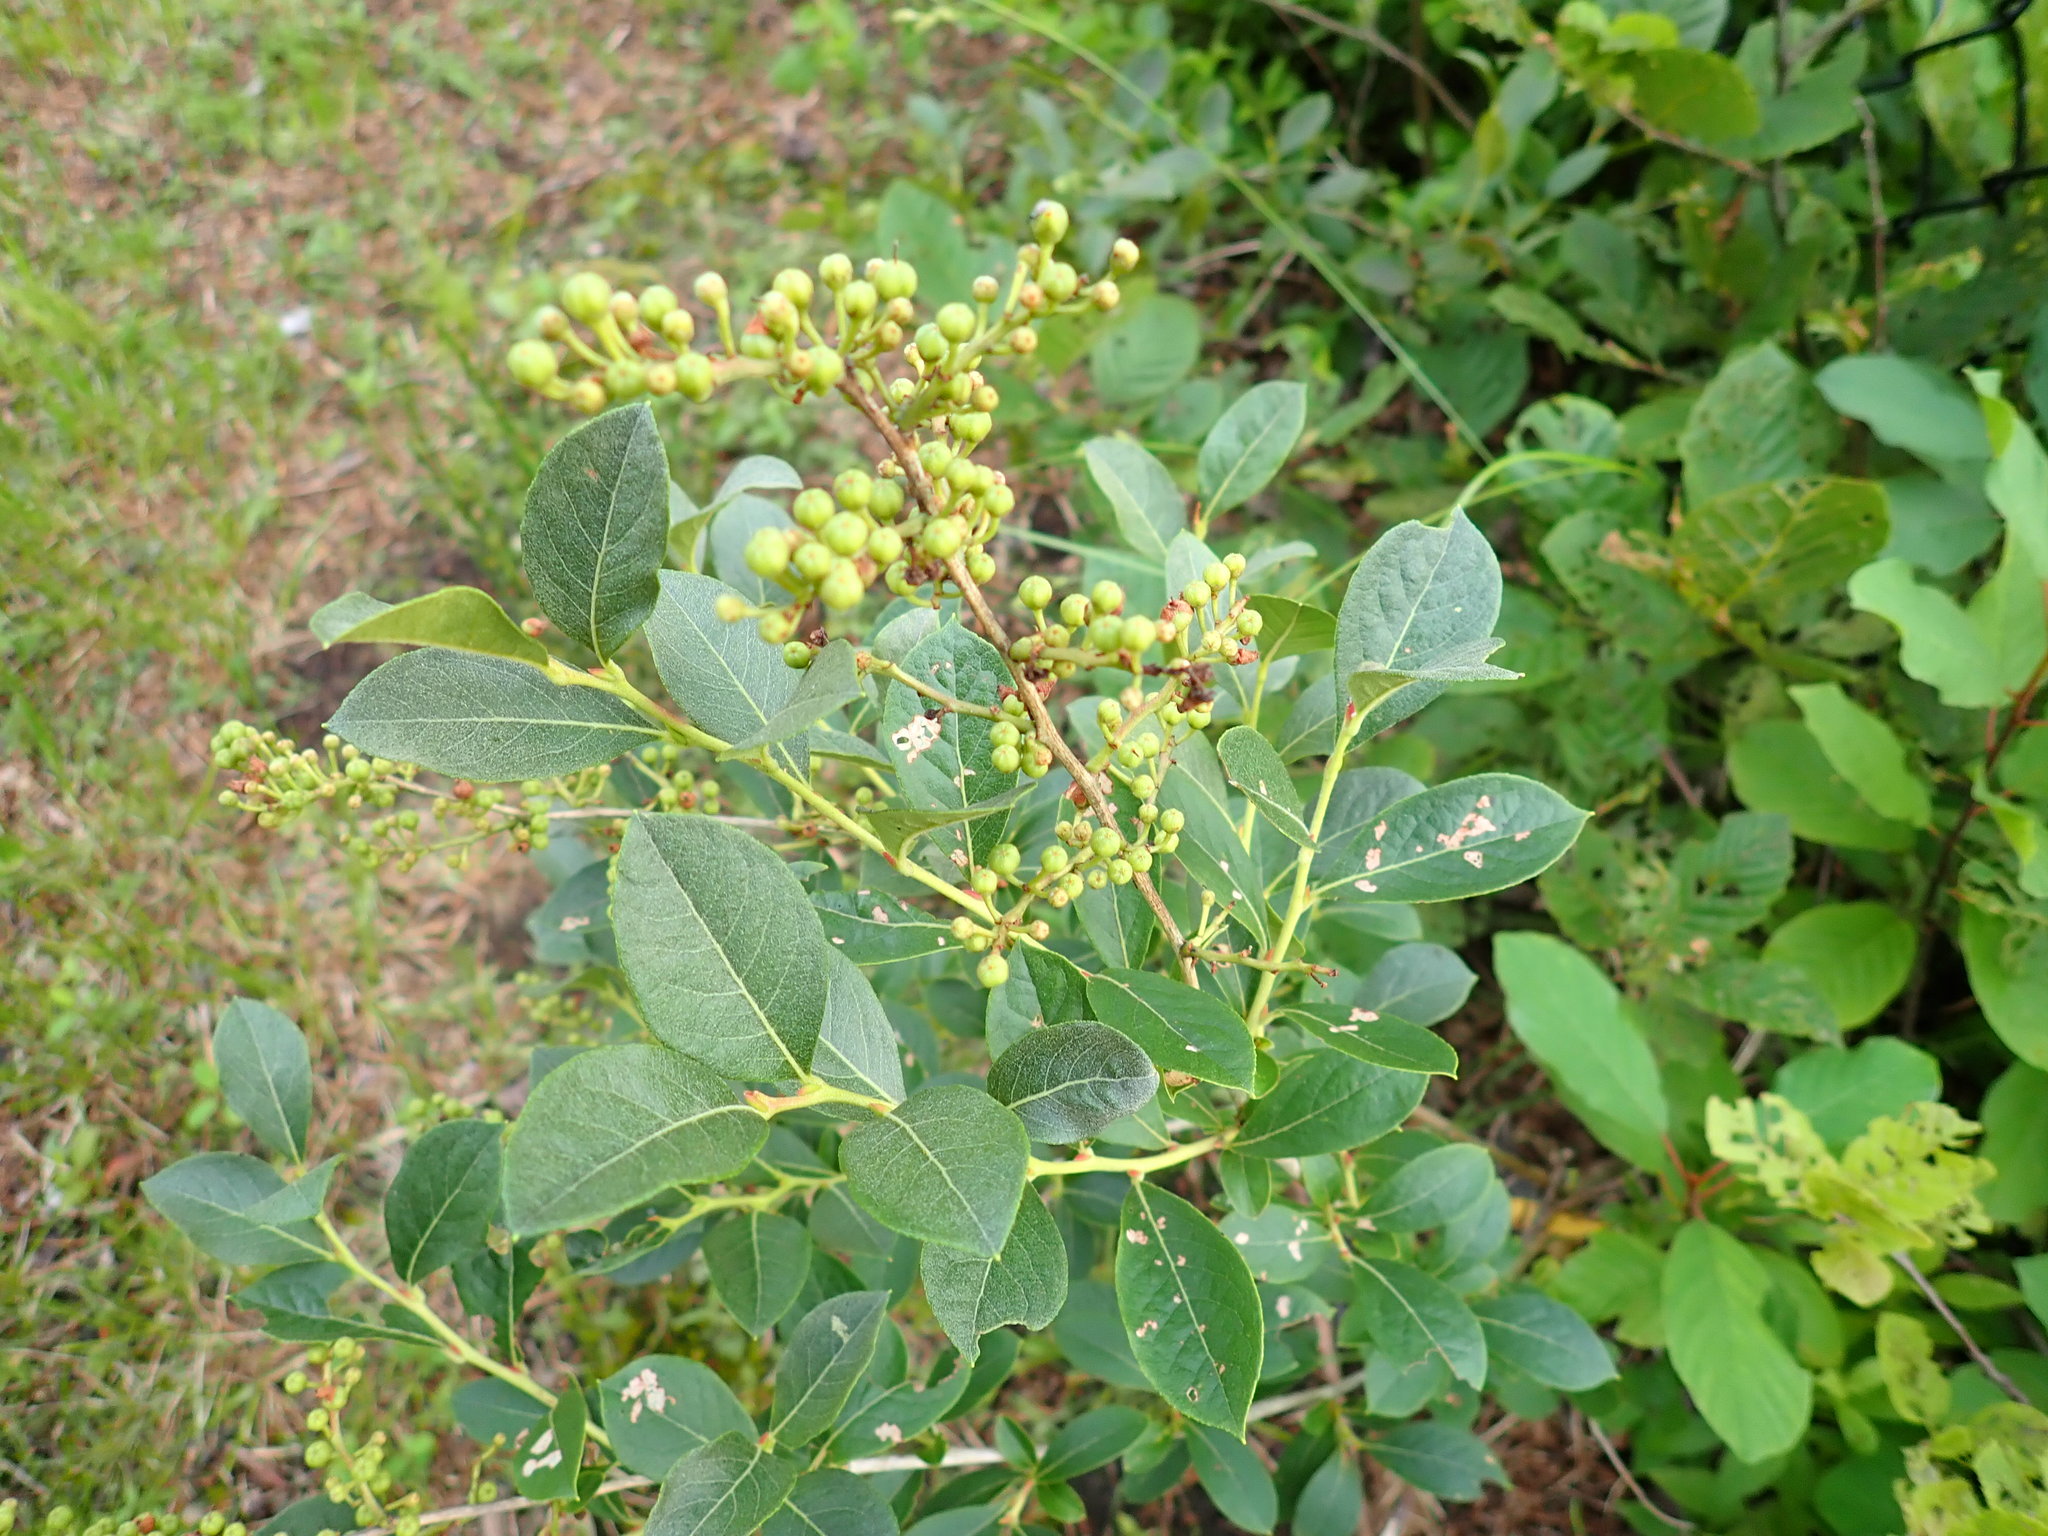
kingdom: Plantae
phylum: Tracheophyta
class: Magnoliopsida
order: Ericales
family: Ericaceae
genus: Lyonia
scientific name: Lyonia ligustrina
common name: Maleberry
